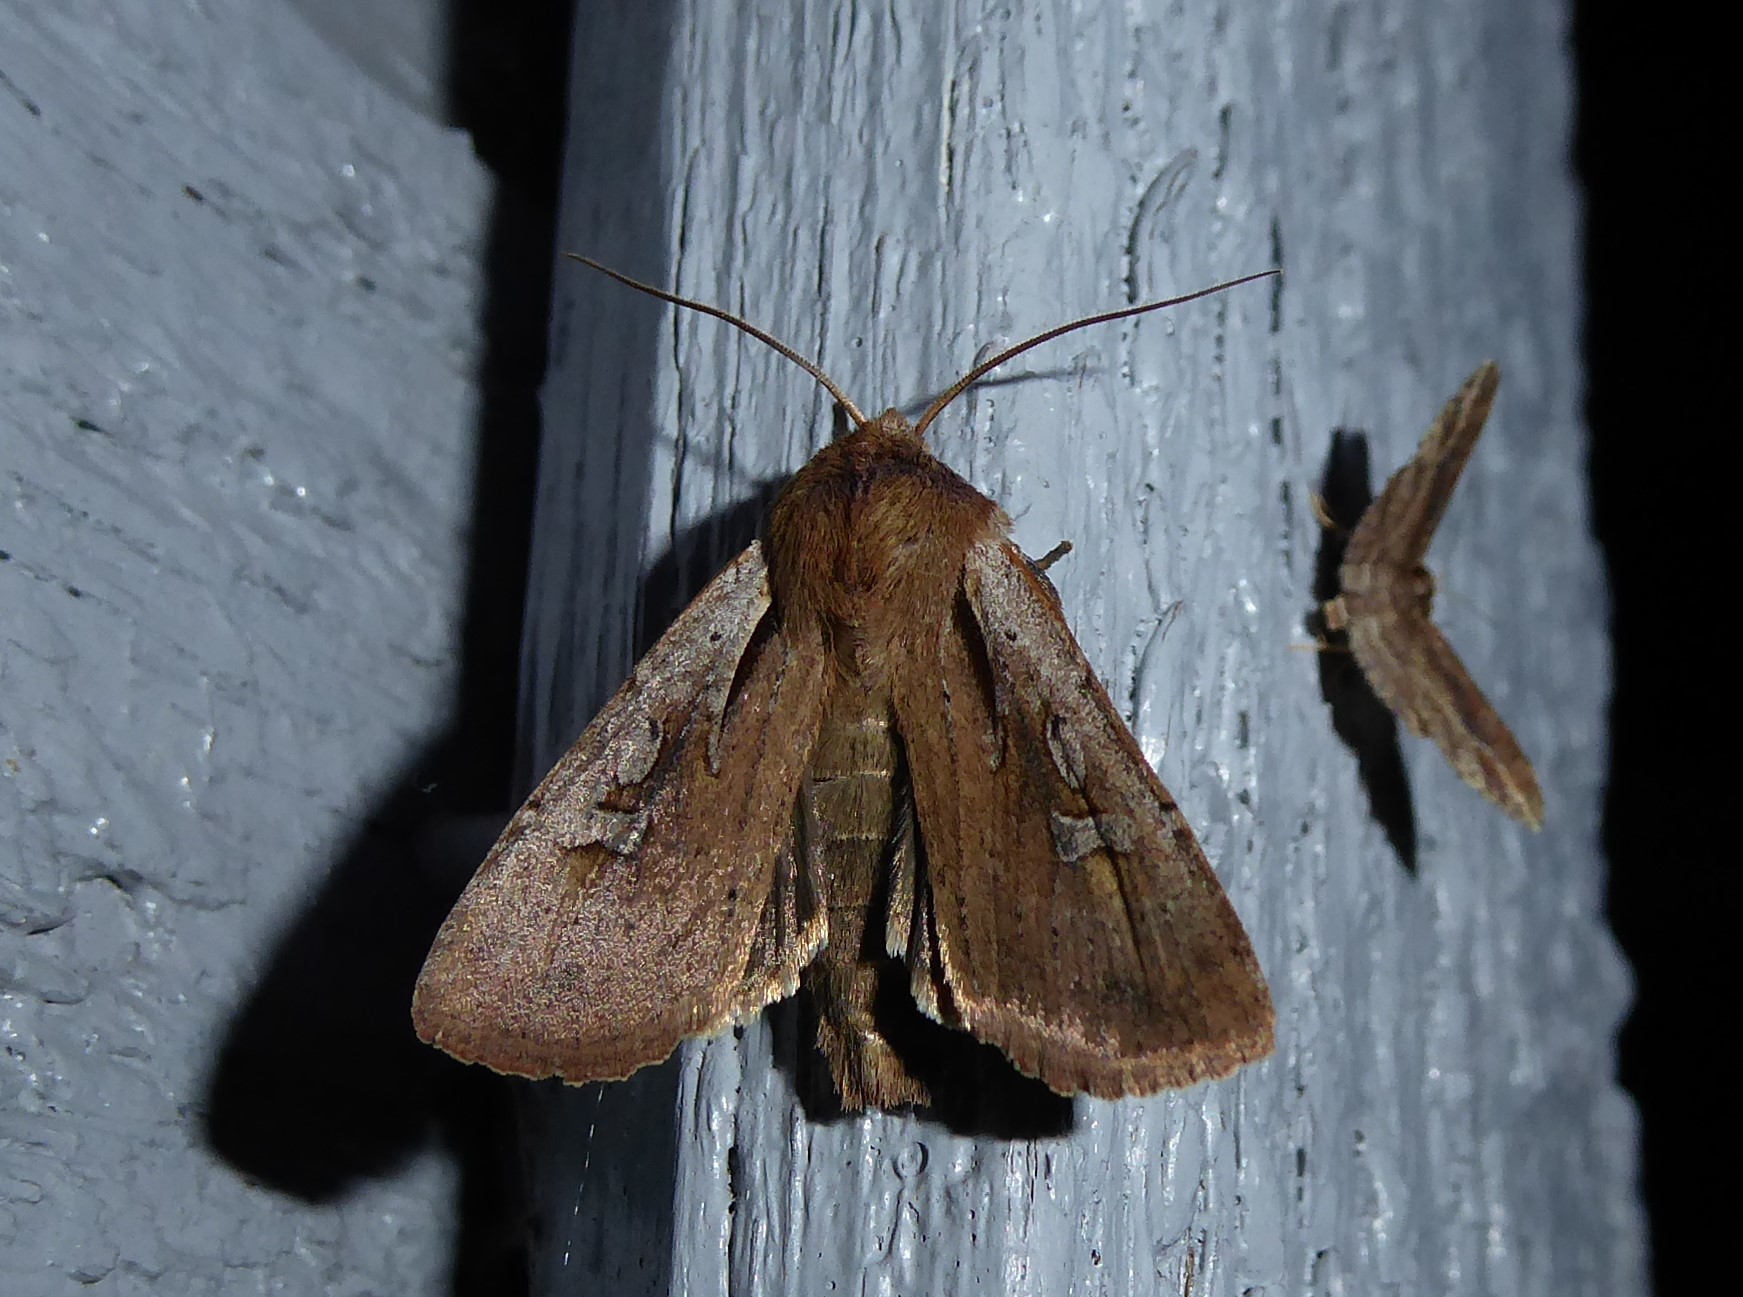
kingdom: Animalia
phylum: Arthropoda
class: Insecta
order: Lepidoptera
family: Noctuidae
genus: Ichneutica
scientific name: Ichneutica atristriga
